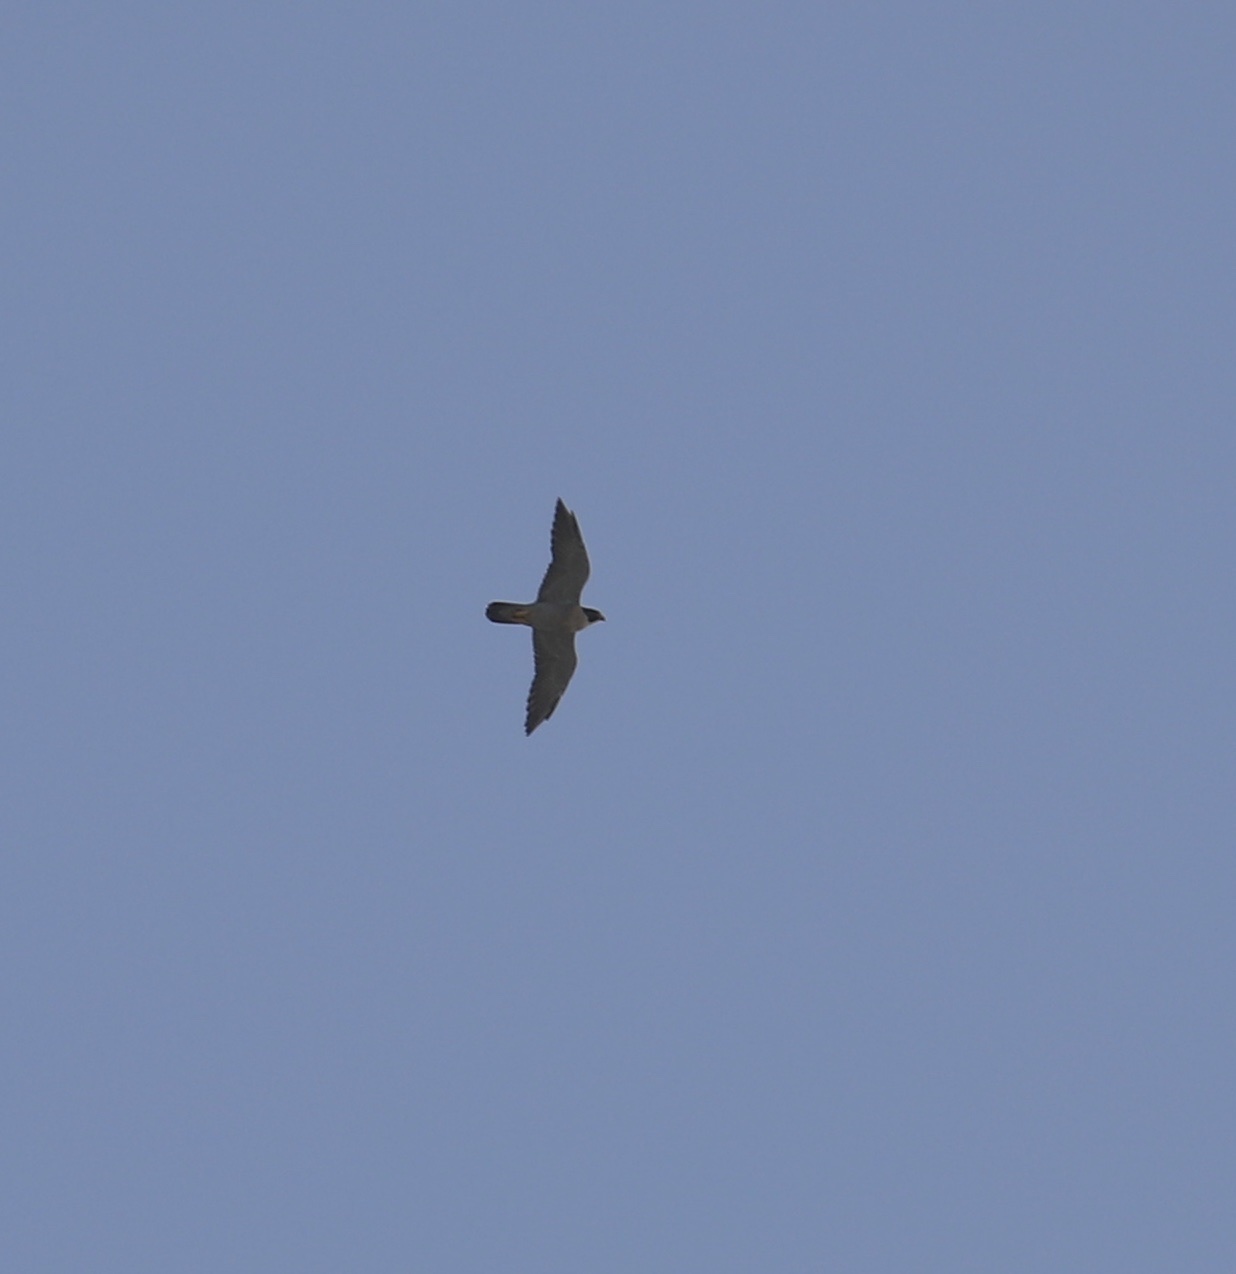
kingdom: Animalia
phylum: Chordata
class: Aves
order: Falconiformes
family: Falconidae
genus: Falco
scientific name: Falco peregrinus
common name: Peregrine falcon
